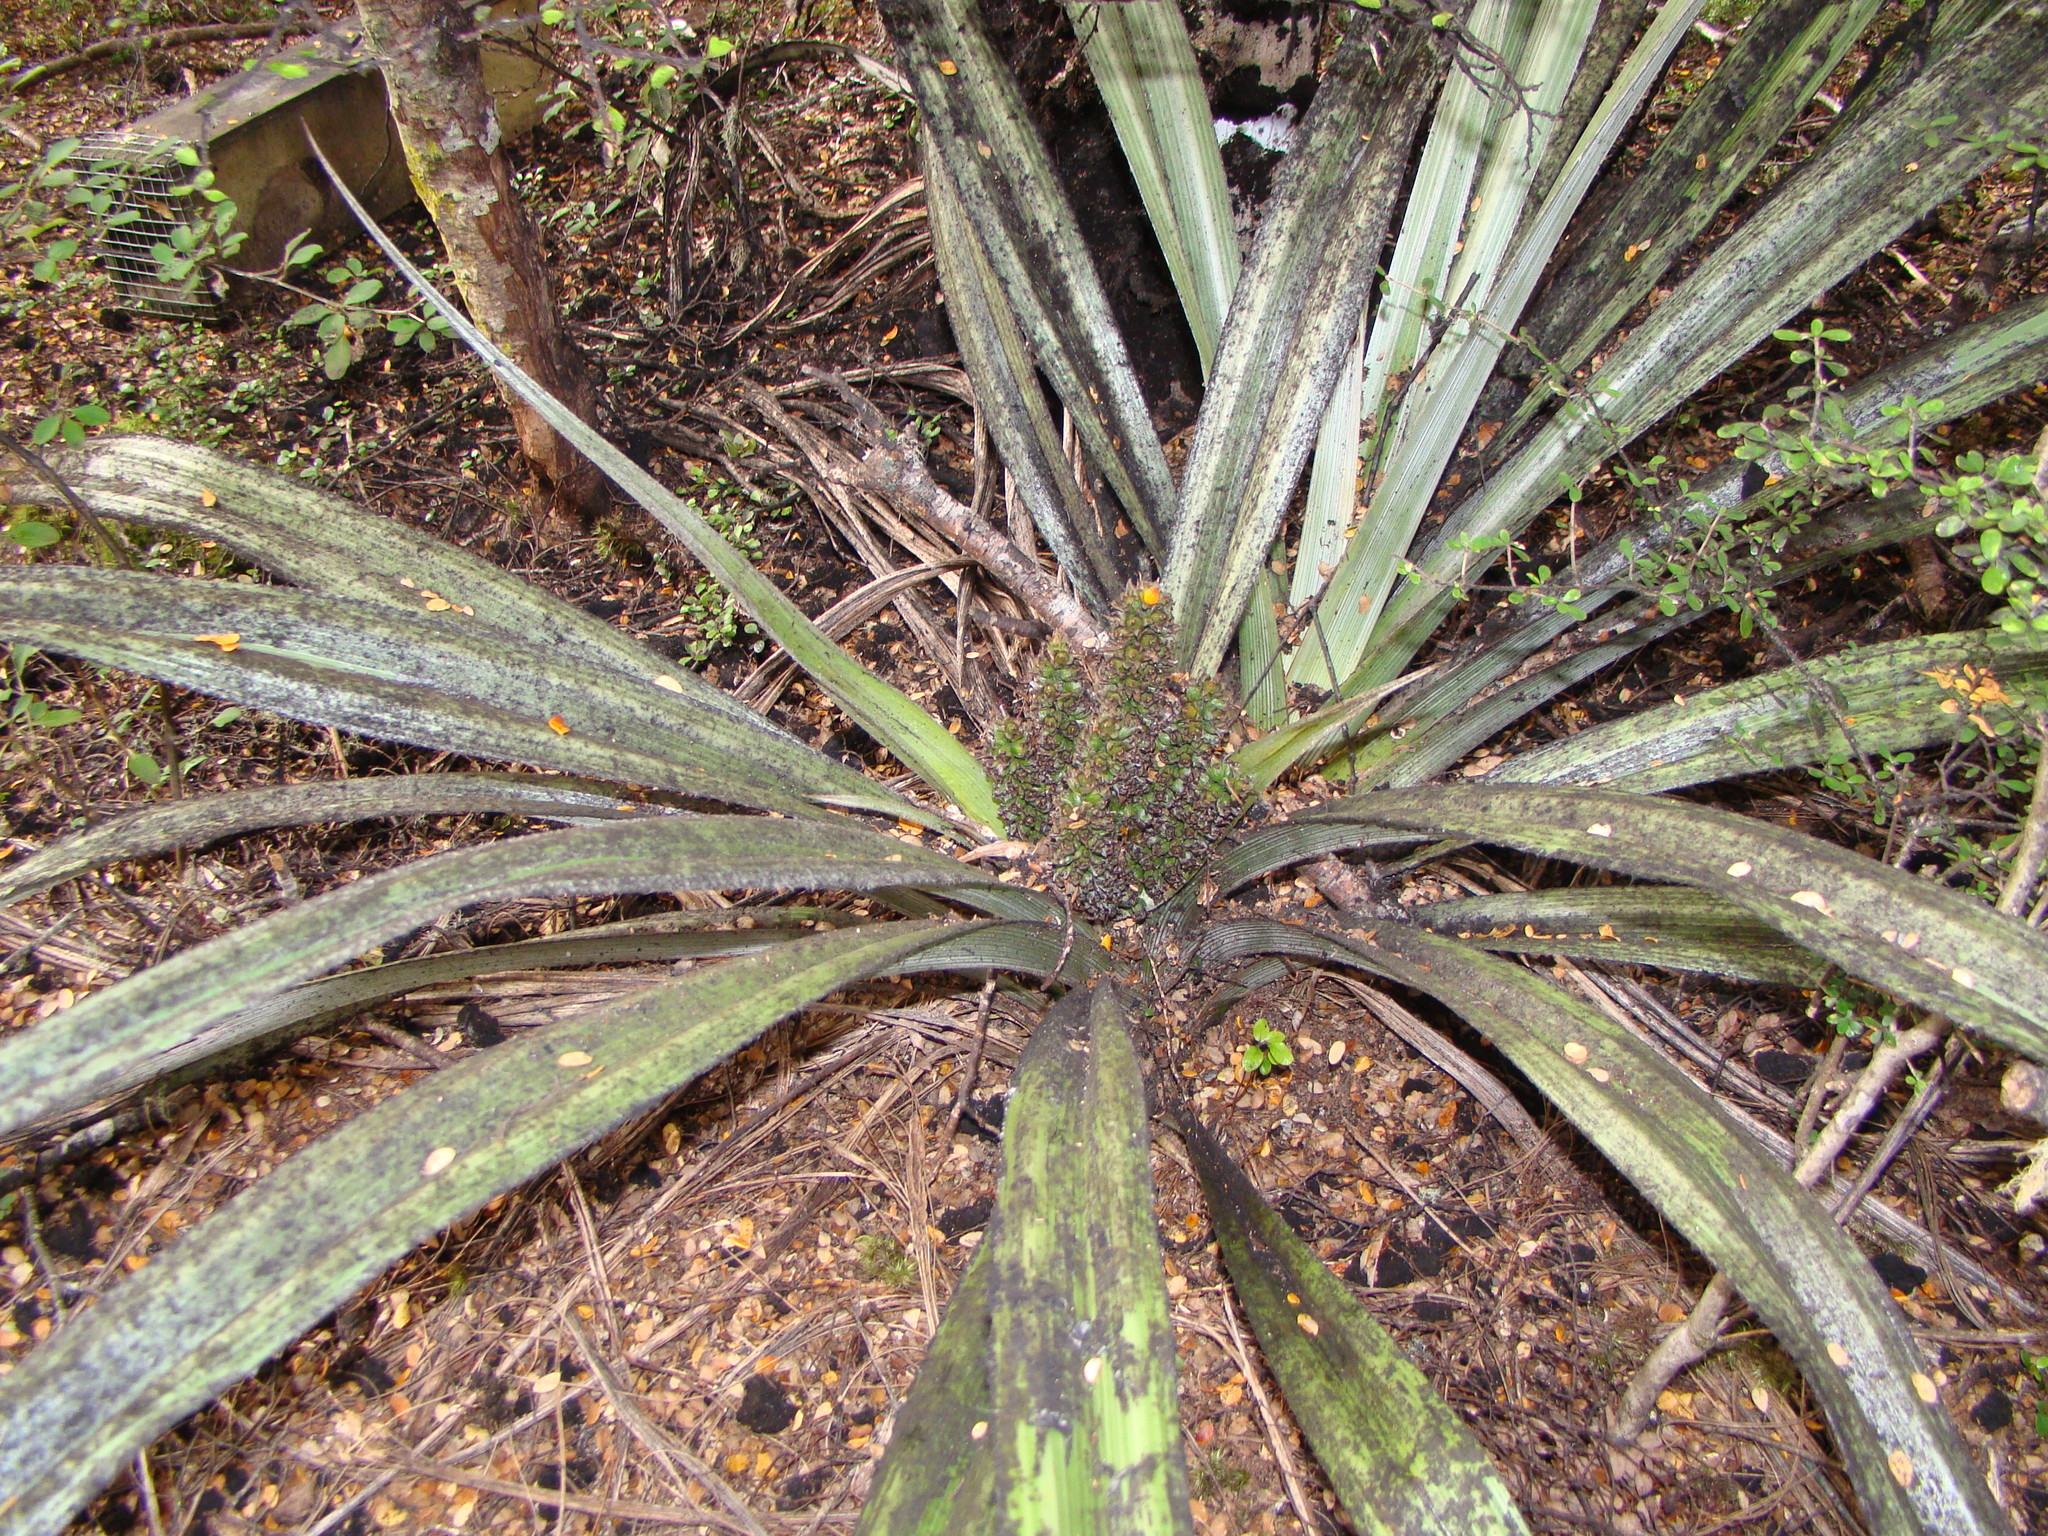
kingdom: Plantae
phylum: Tracheophyta
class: Liliopsida
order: Asparagales
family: Asteliaceae
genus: Astelia
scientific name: Astelia fragrans
